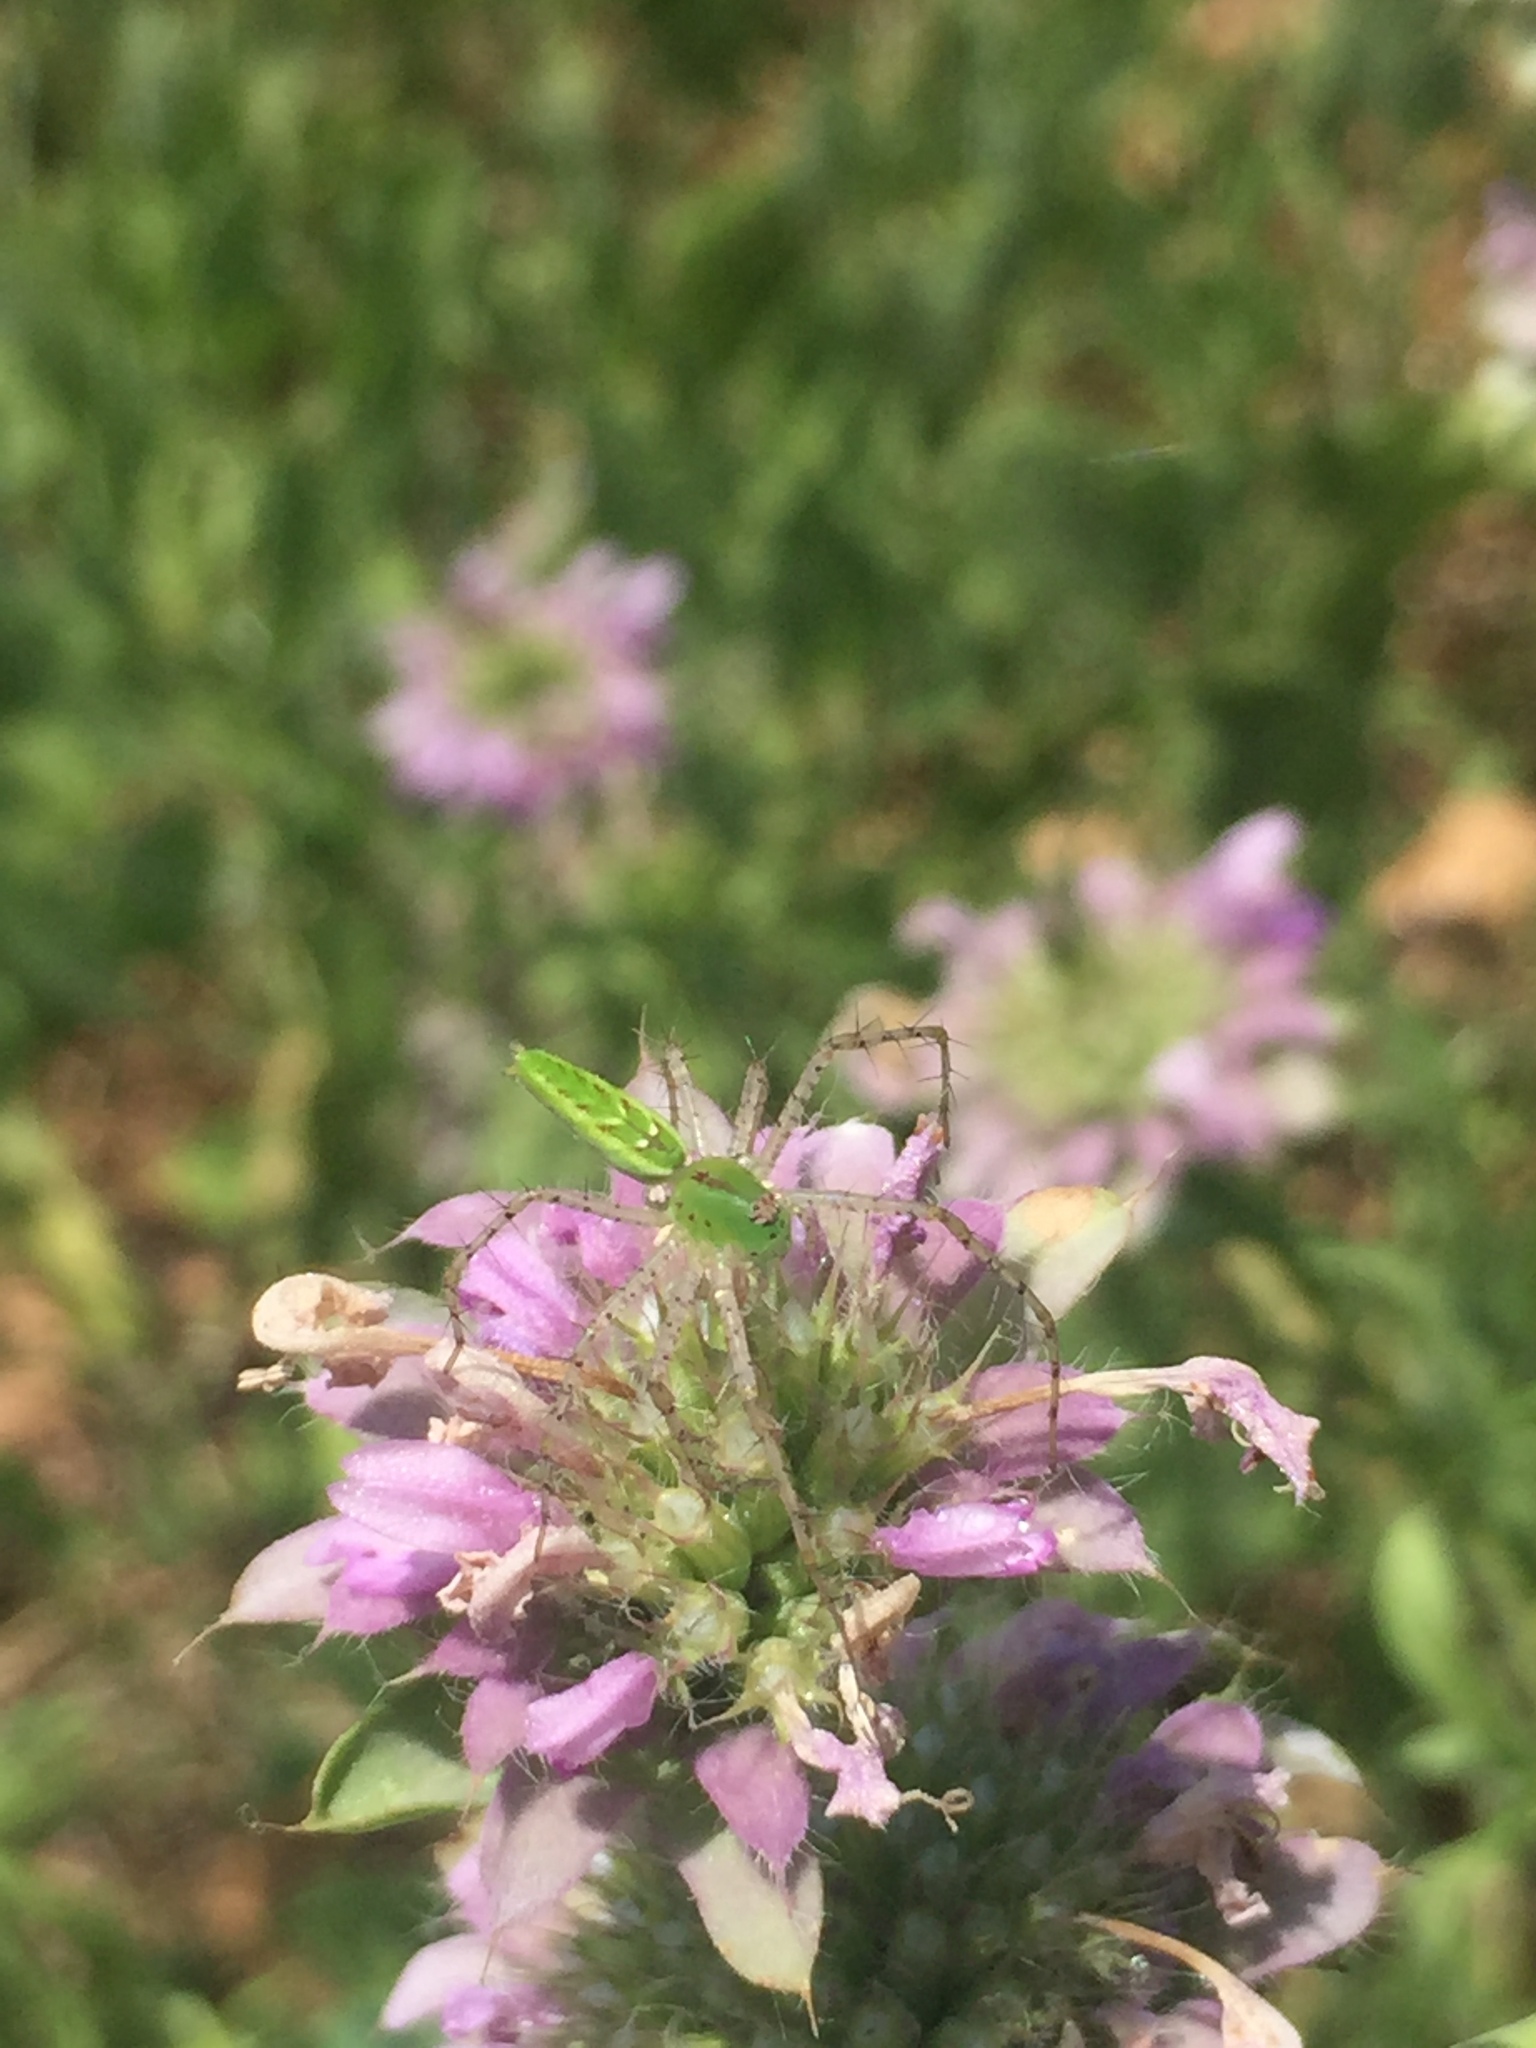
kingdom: Animalia
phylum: Arthropoda
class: Arachnida
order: Araneae
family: Oxyopidae
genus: Peucetia
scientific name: Peucetia viridans
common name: Lynx spiders
